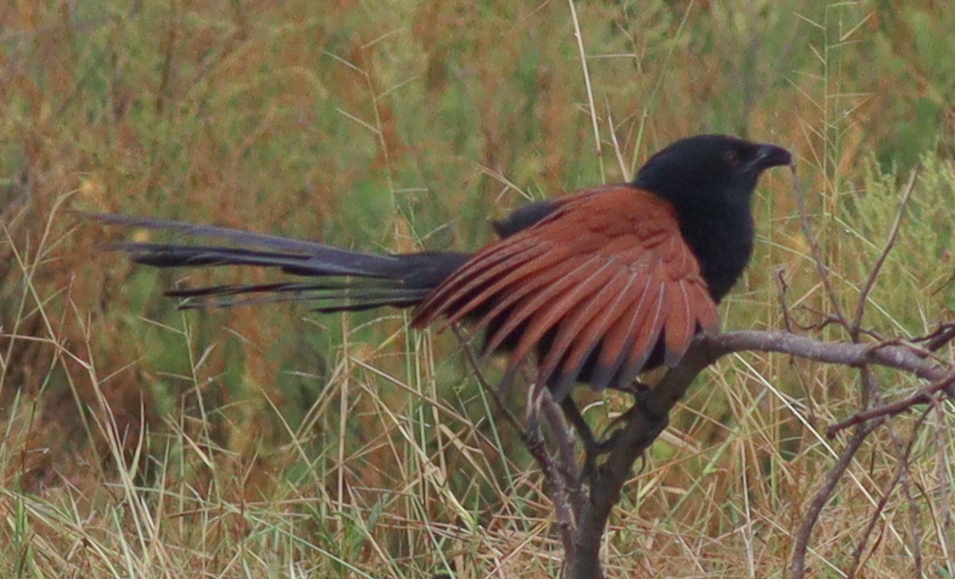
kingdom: Animalia
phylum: Chordata
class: Aves
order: Cuculiformes
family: Cuculidae
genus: Centropus
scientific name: Centropus sinensis
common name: Greater coucal
